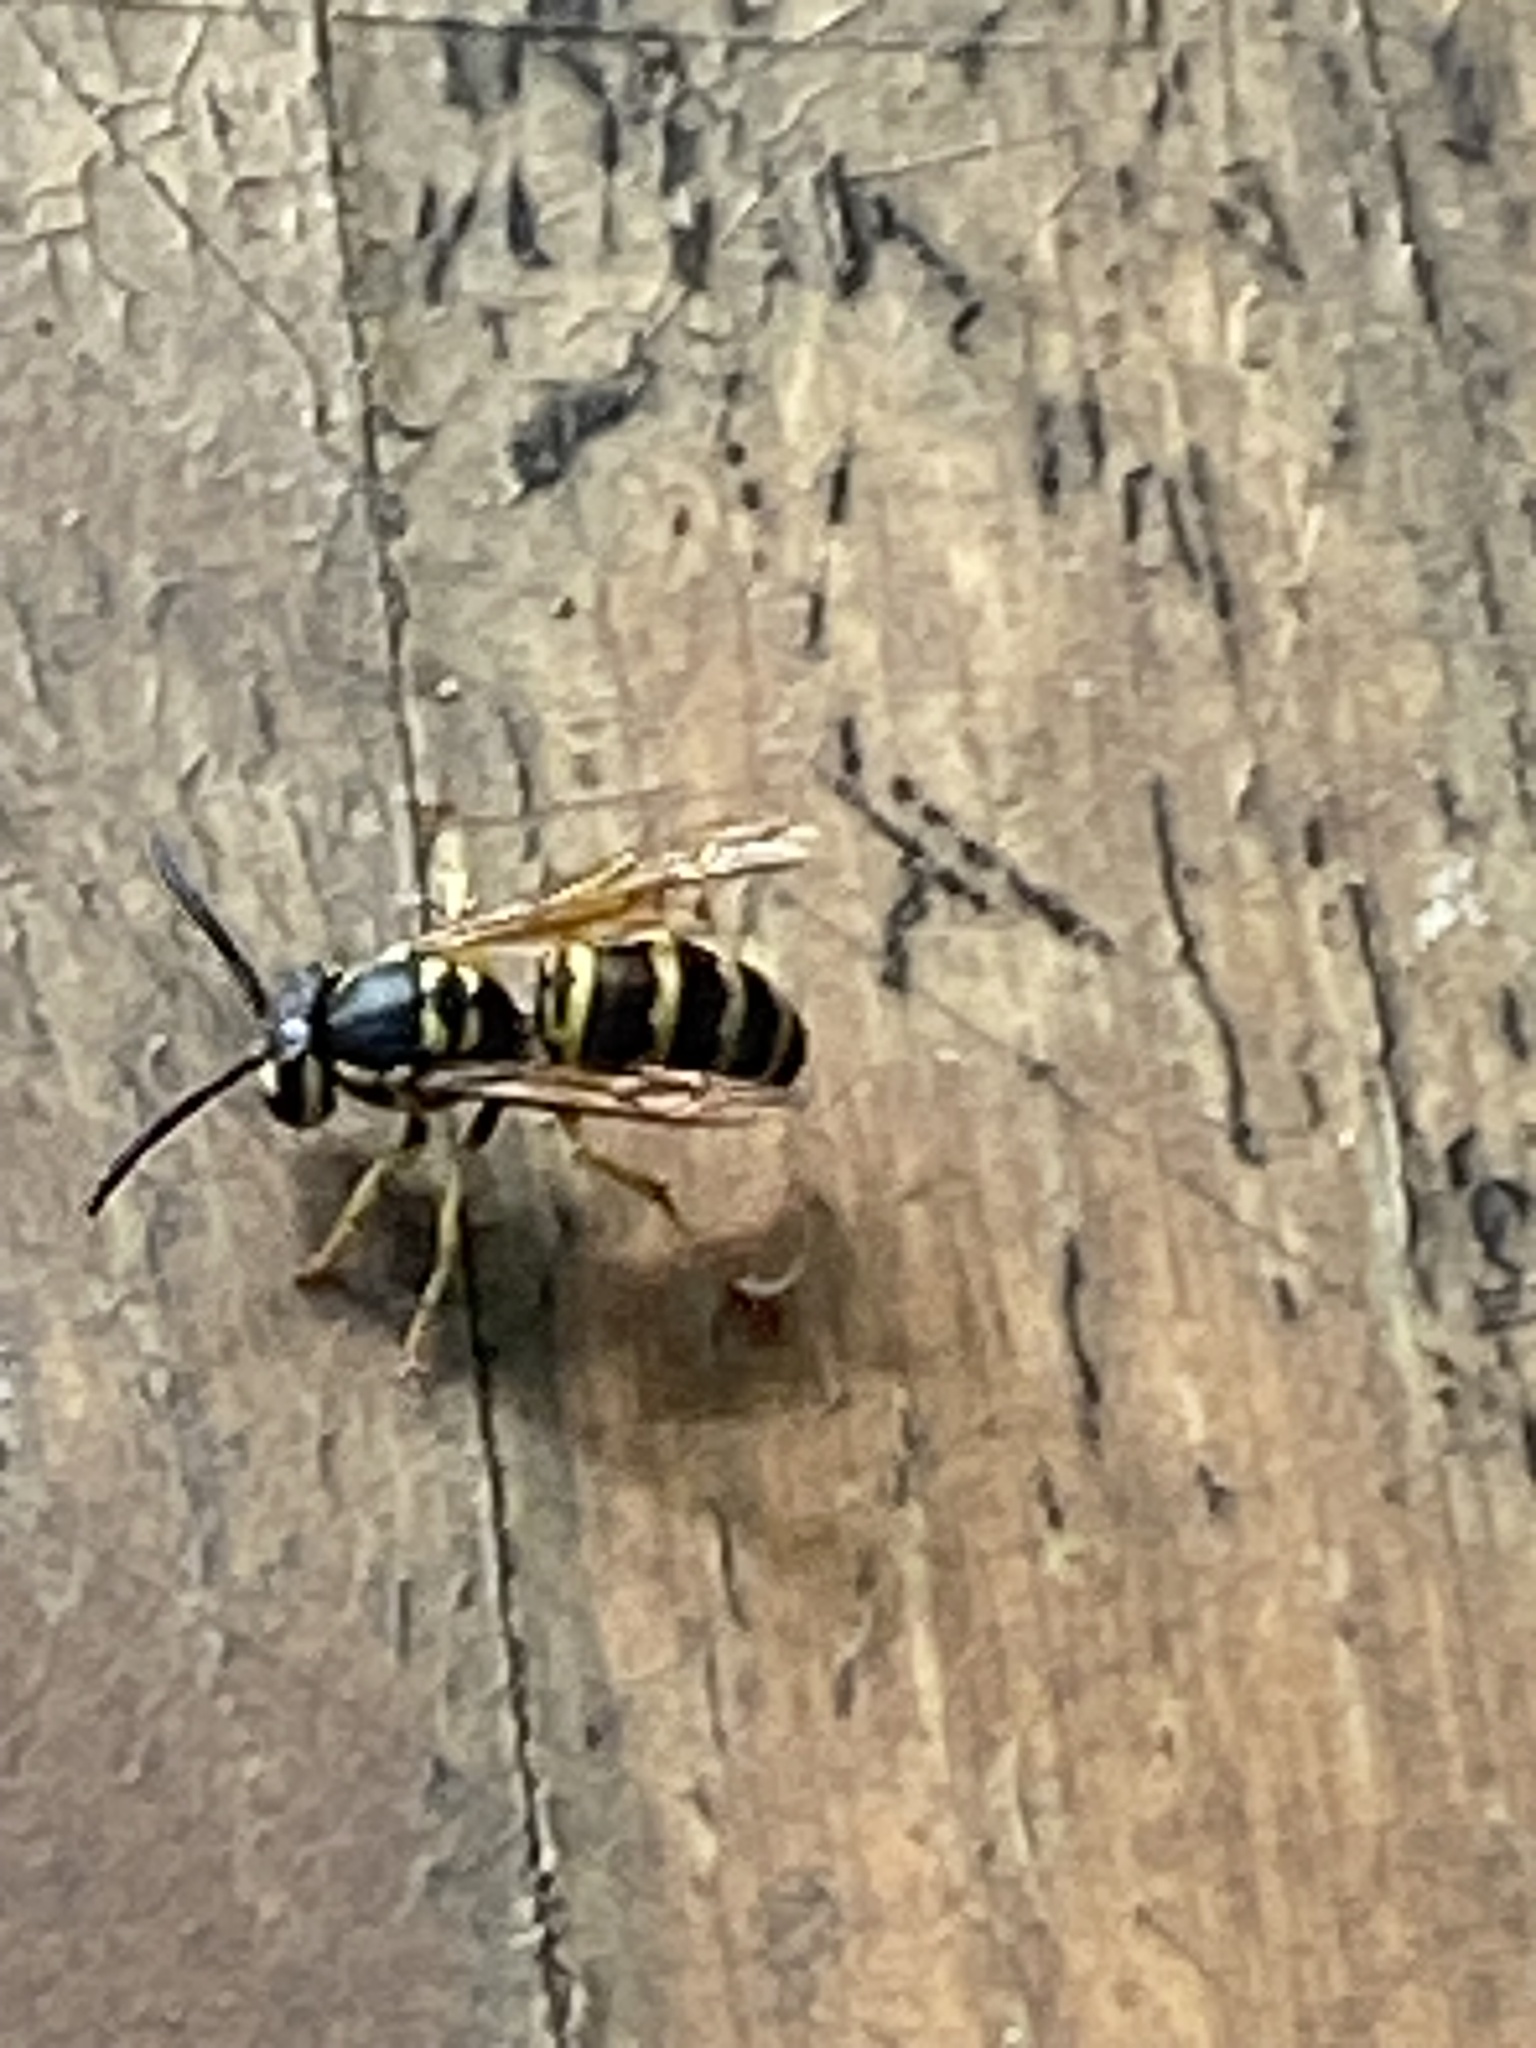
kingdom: Animalia
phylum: Arthropoda
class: Insecta
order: Hymenoptera
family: Vespidae
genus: Vespula
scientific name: Vespula maculifrons
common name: Eastern yellowjacket
